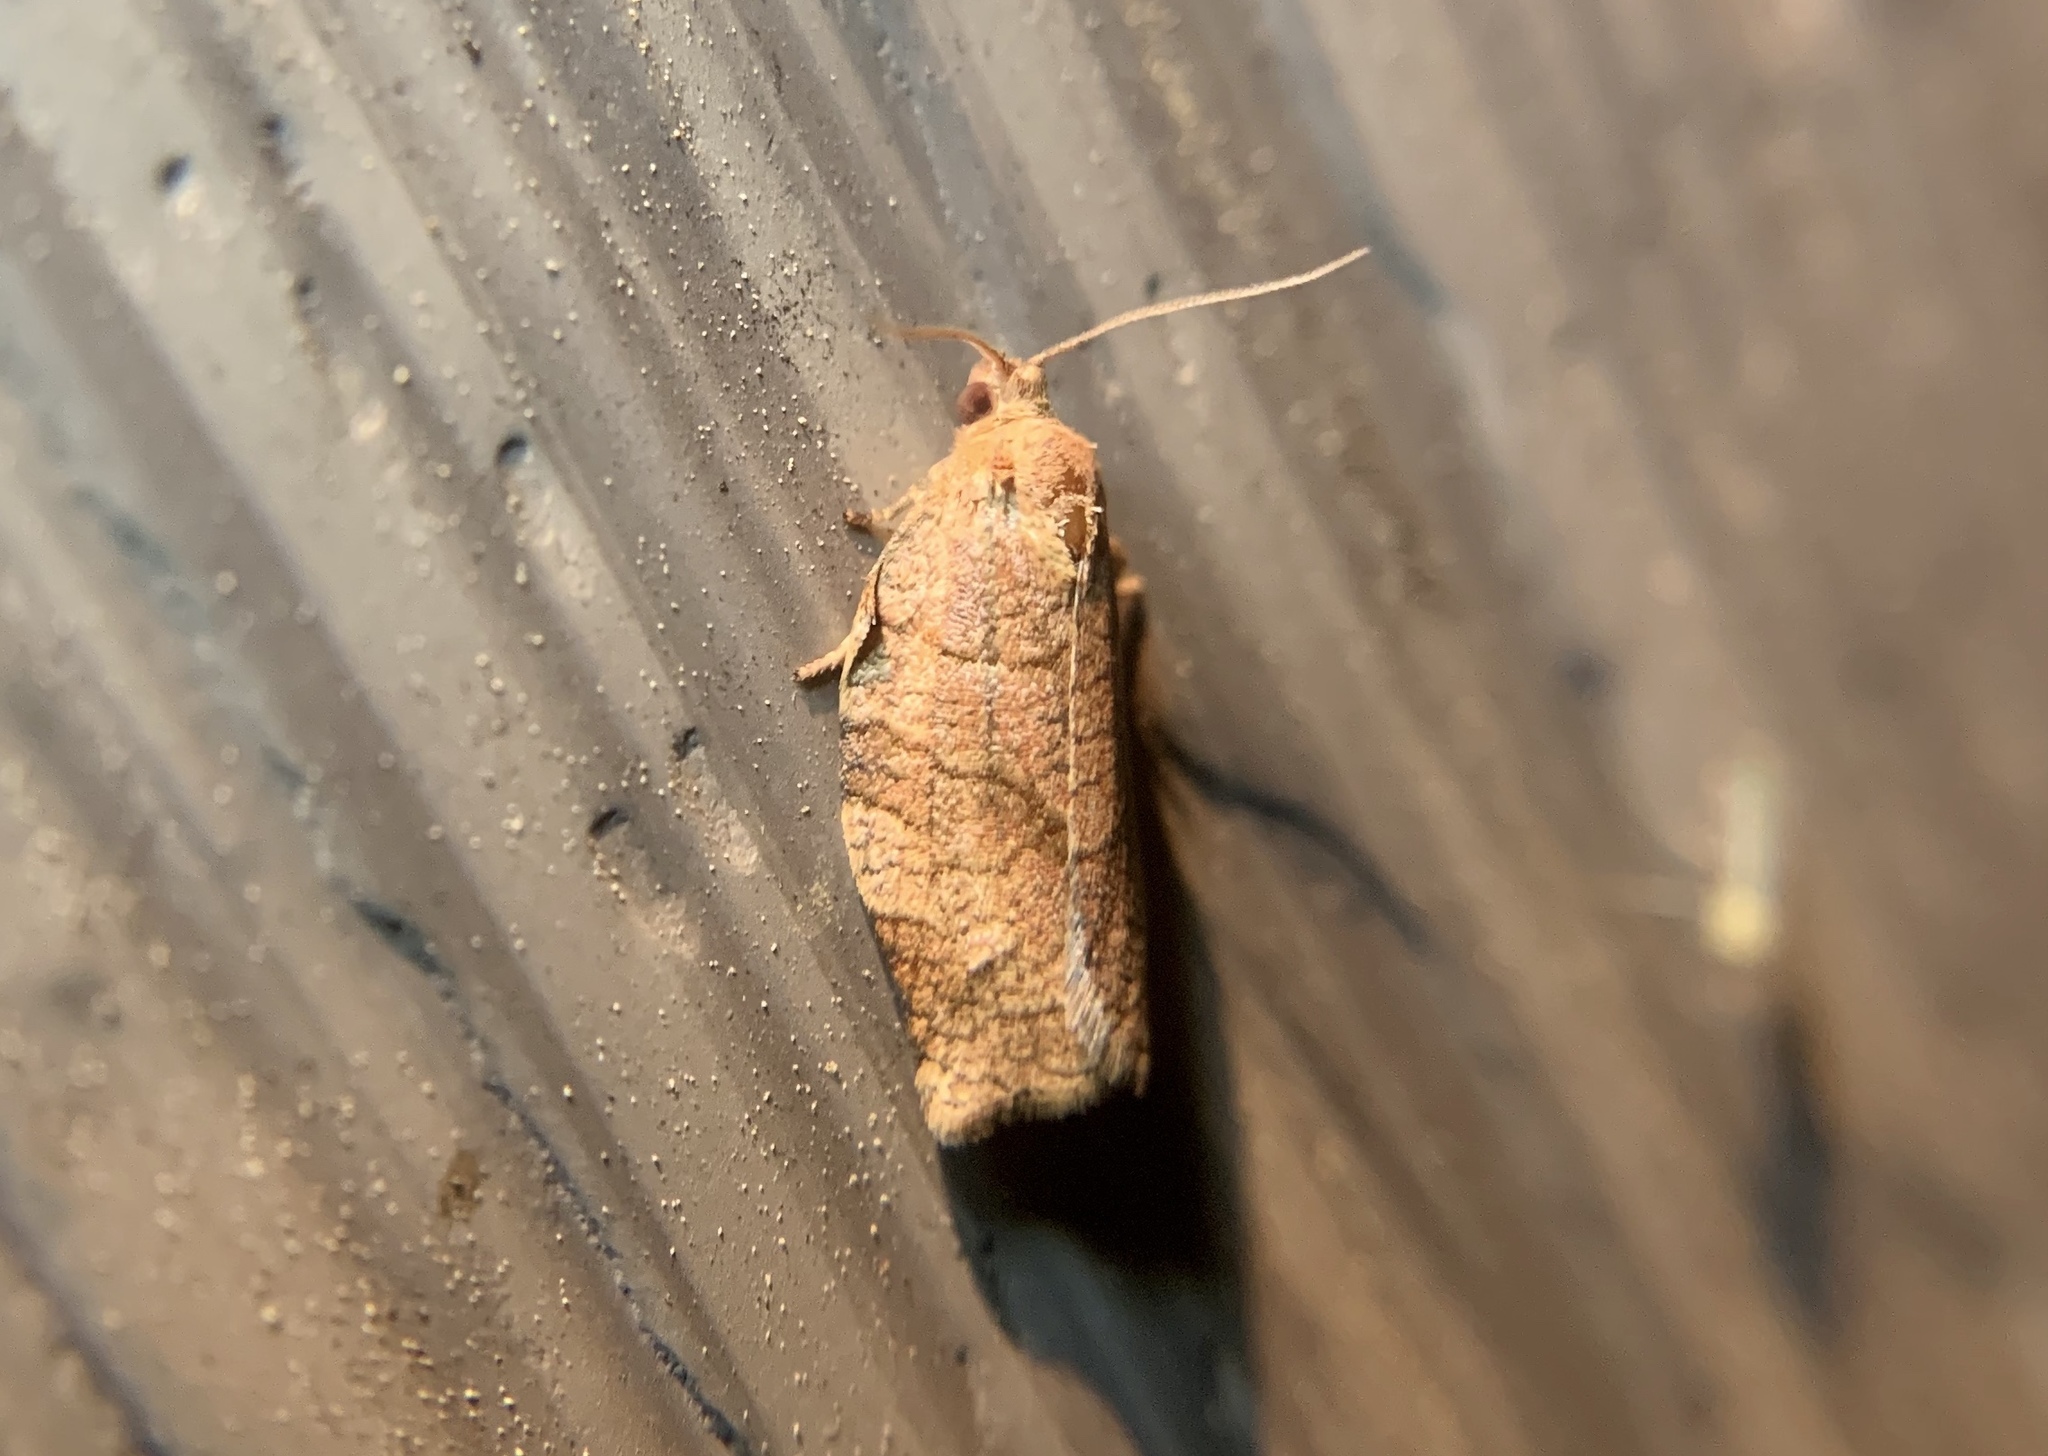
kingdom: Animalia
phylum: Arthropoda
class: Insecta
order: Lepidoptera
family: Tortricidae
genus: Choristoneura
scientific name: Choristoneura rosaceana
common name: Oblique-banded leafroller moth
